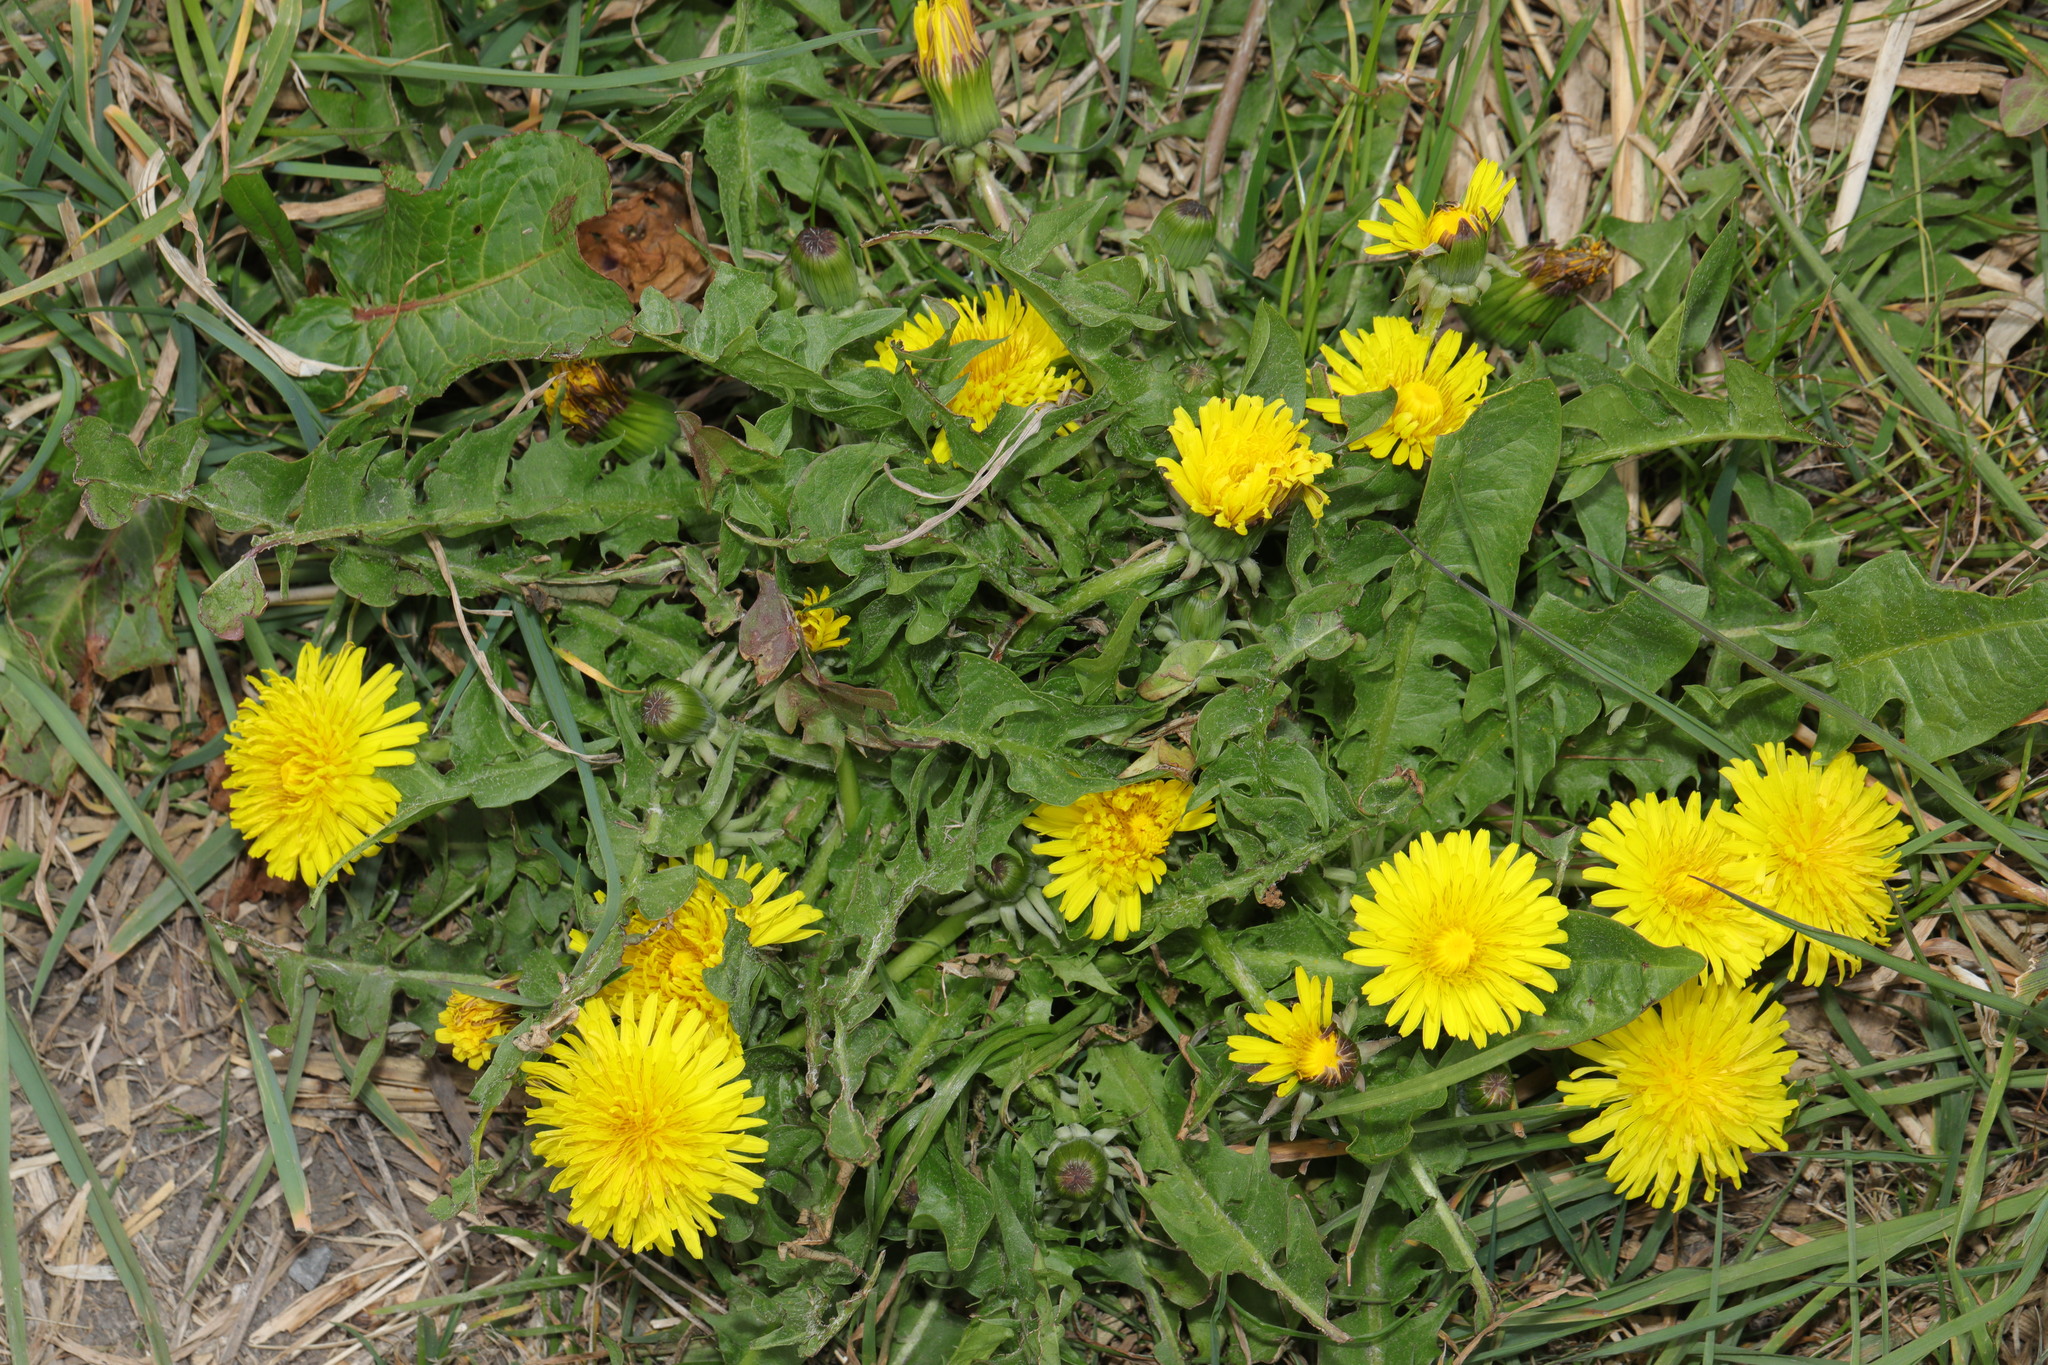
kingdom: Plantae
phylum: Tracheophyta
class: Magnoliopsida
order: Asterales
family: Asteraceae
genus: Taraxacum
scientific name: Taraxacum officinale
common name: Common dandelion
